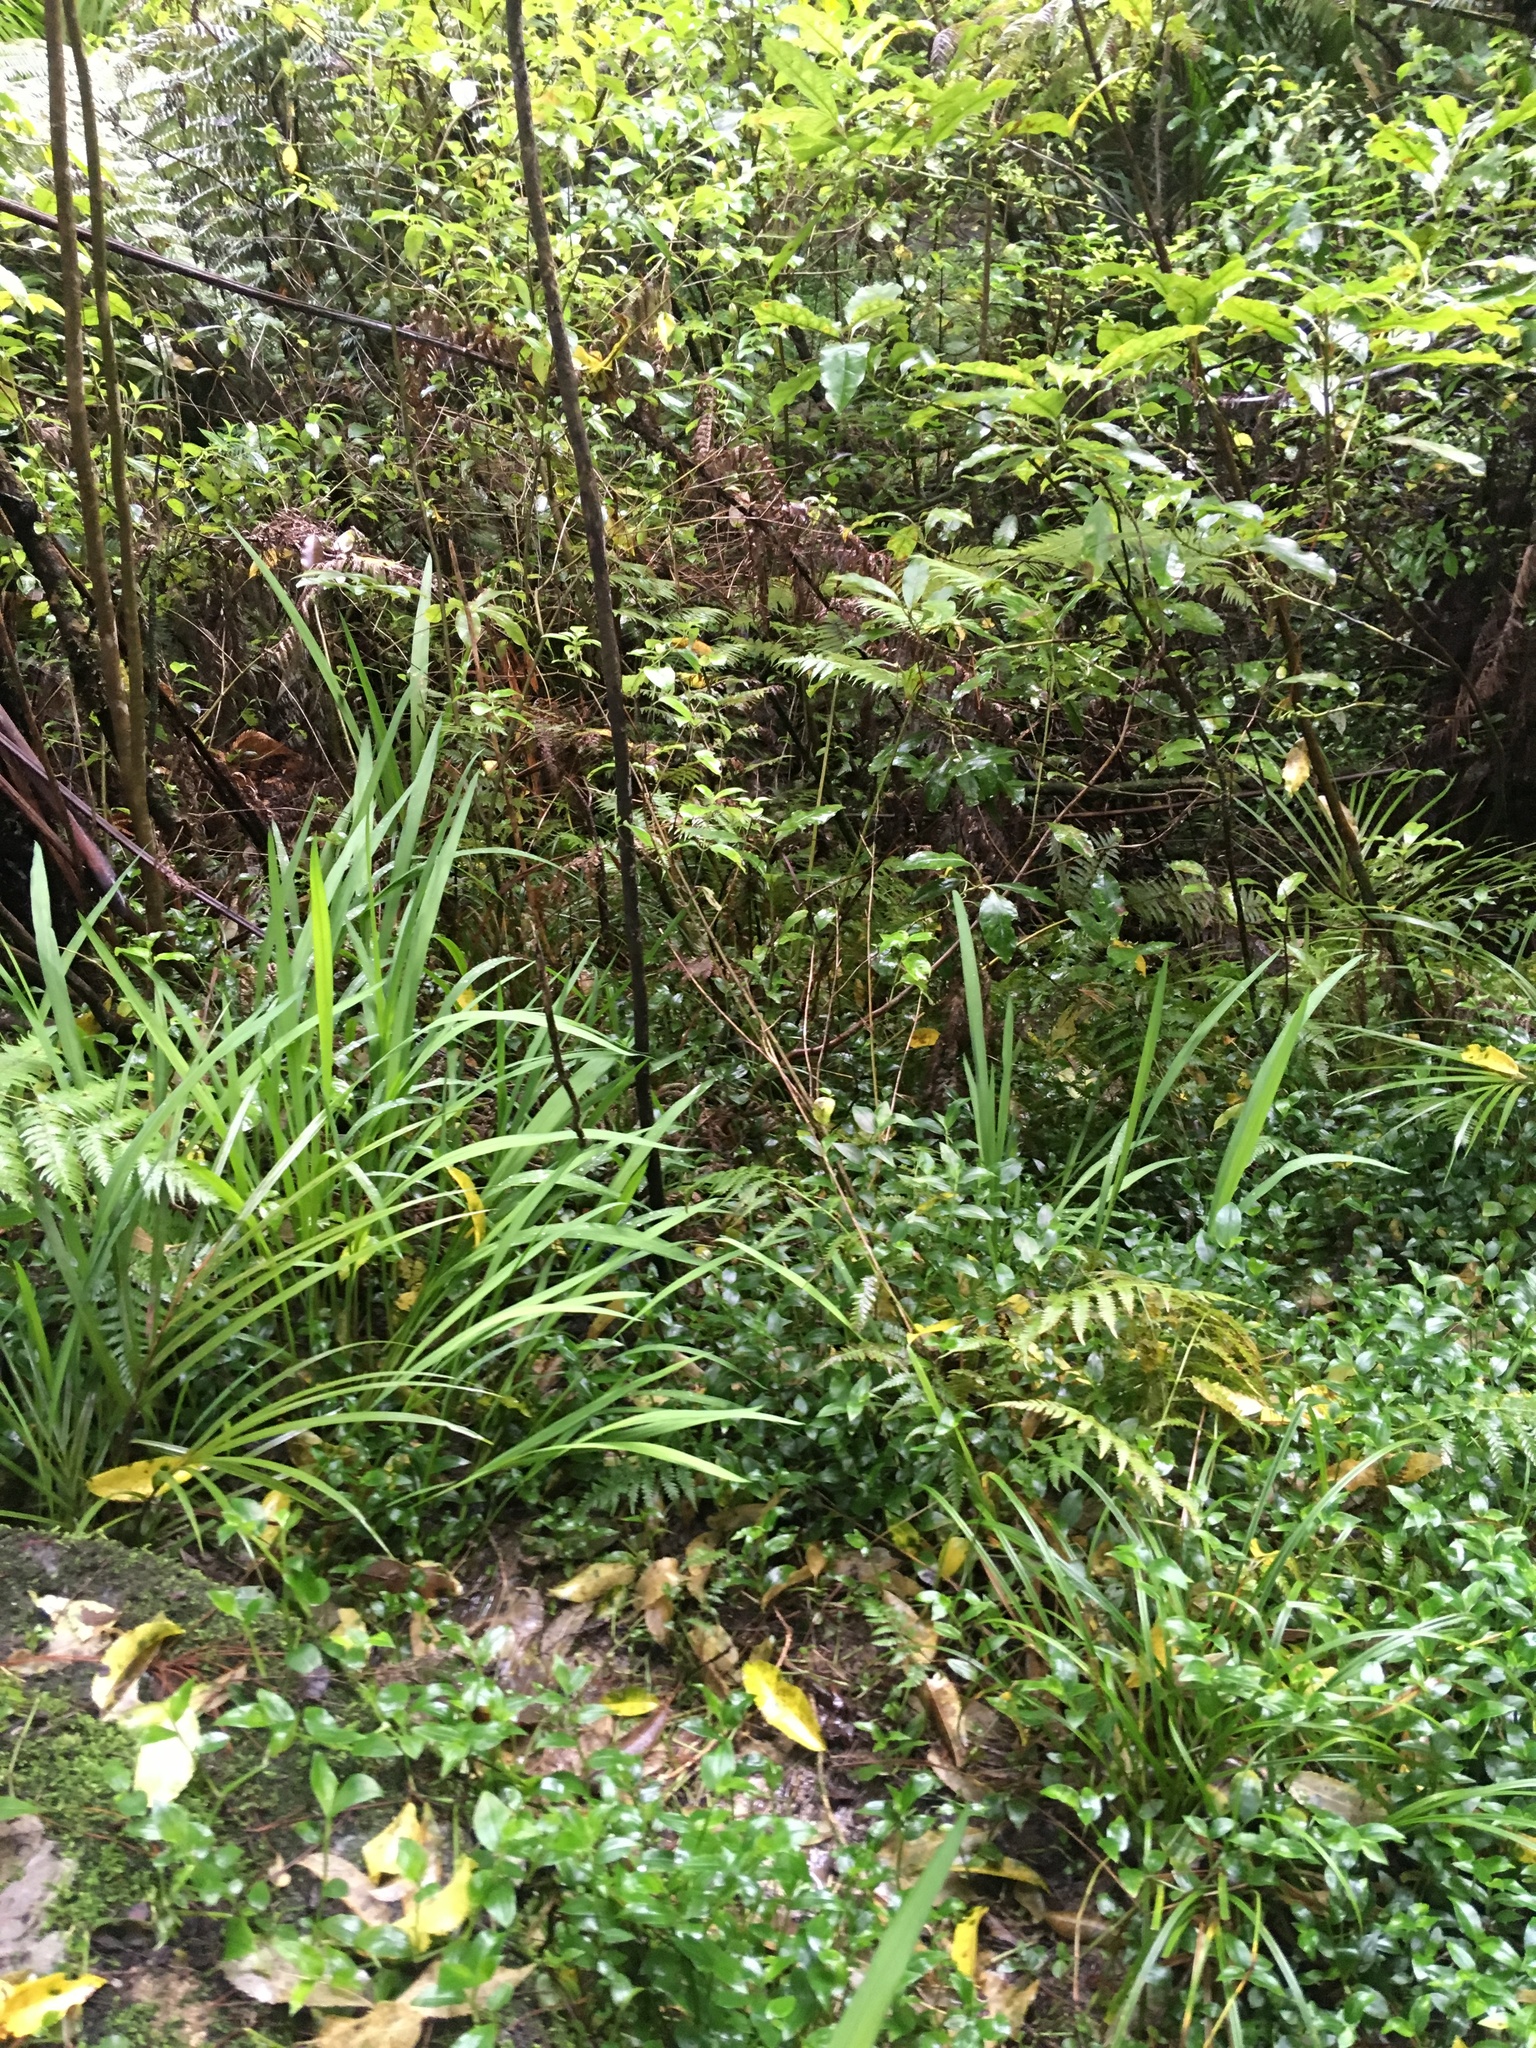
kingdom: Plantae
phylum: Tracheophyta
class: Liliopsida
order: Asparagales
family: Iridaceae
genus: Crocosmia
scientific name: Crocosmia crocosmiiflora
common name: Montbretia
